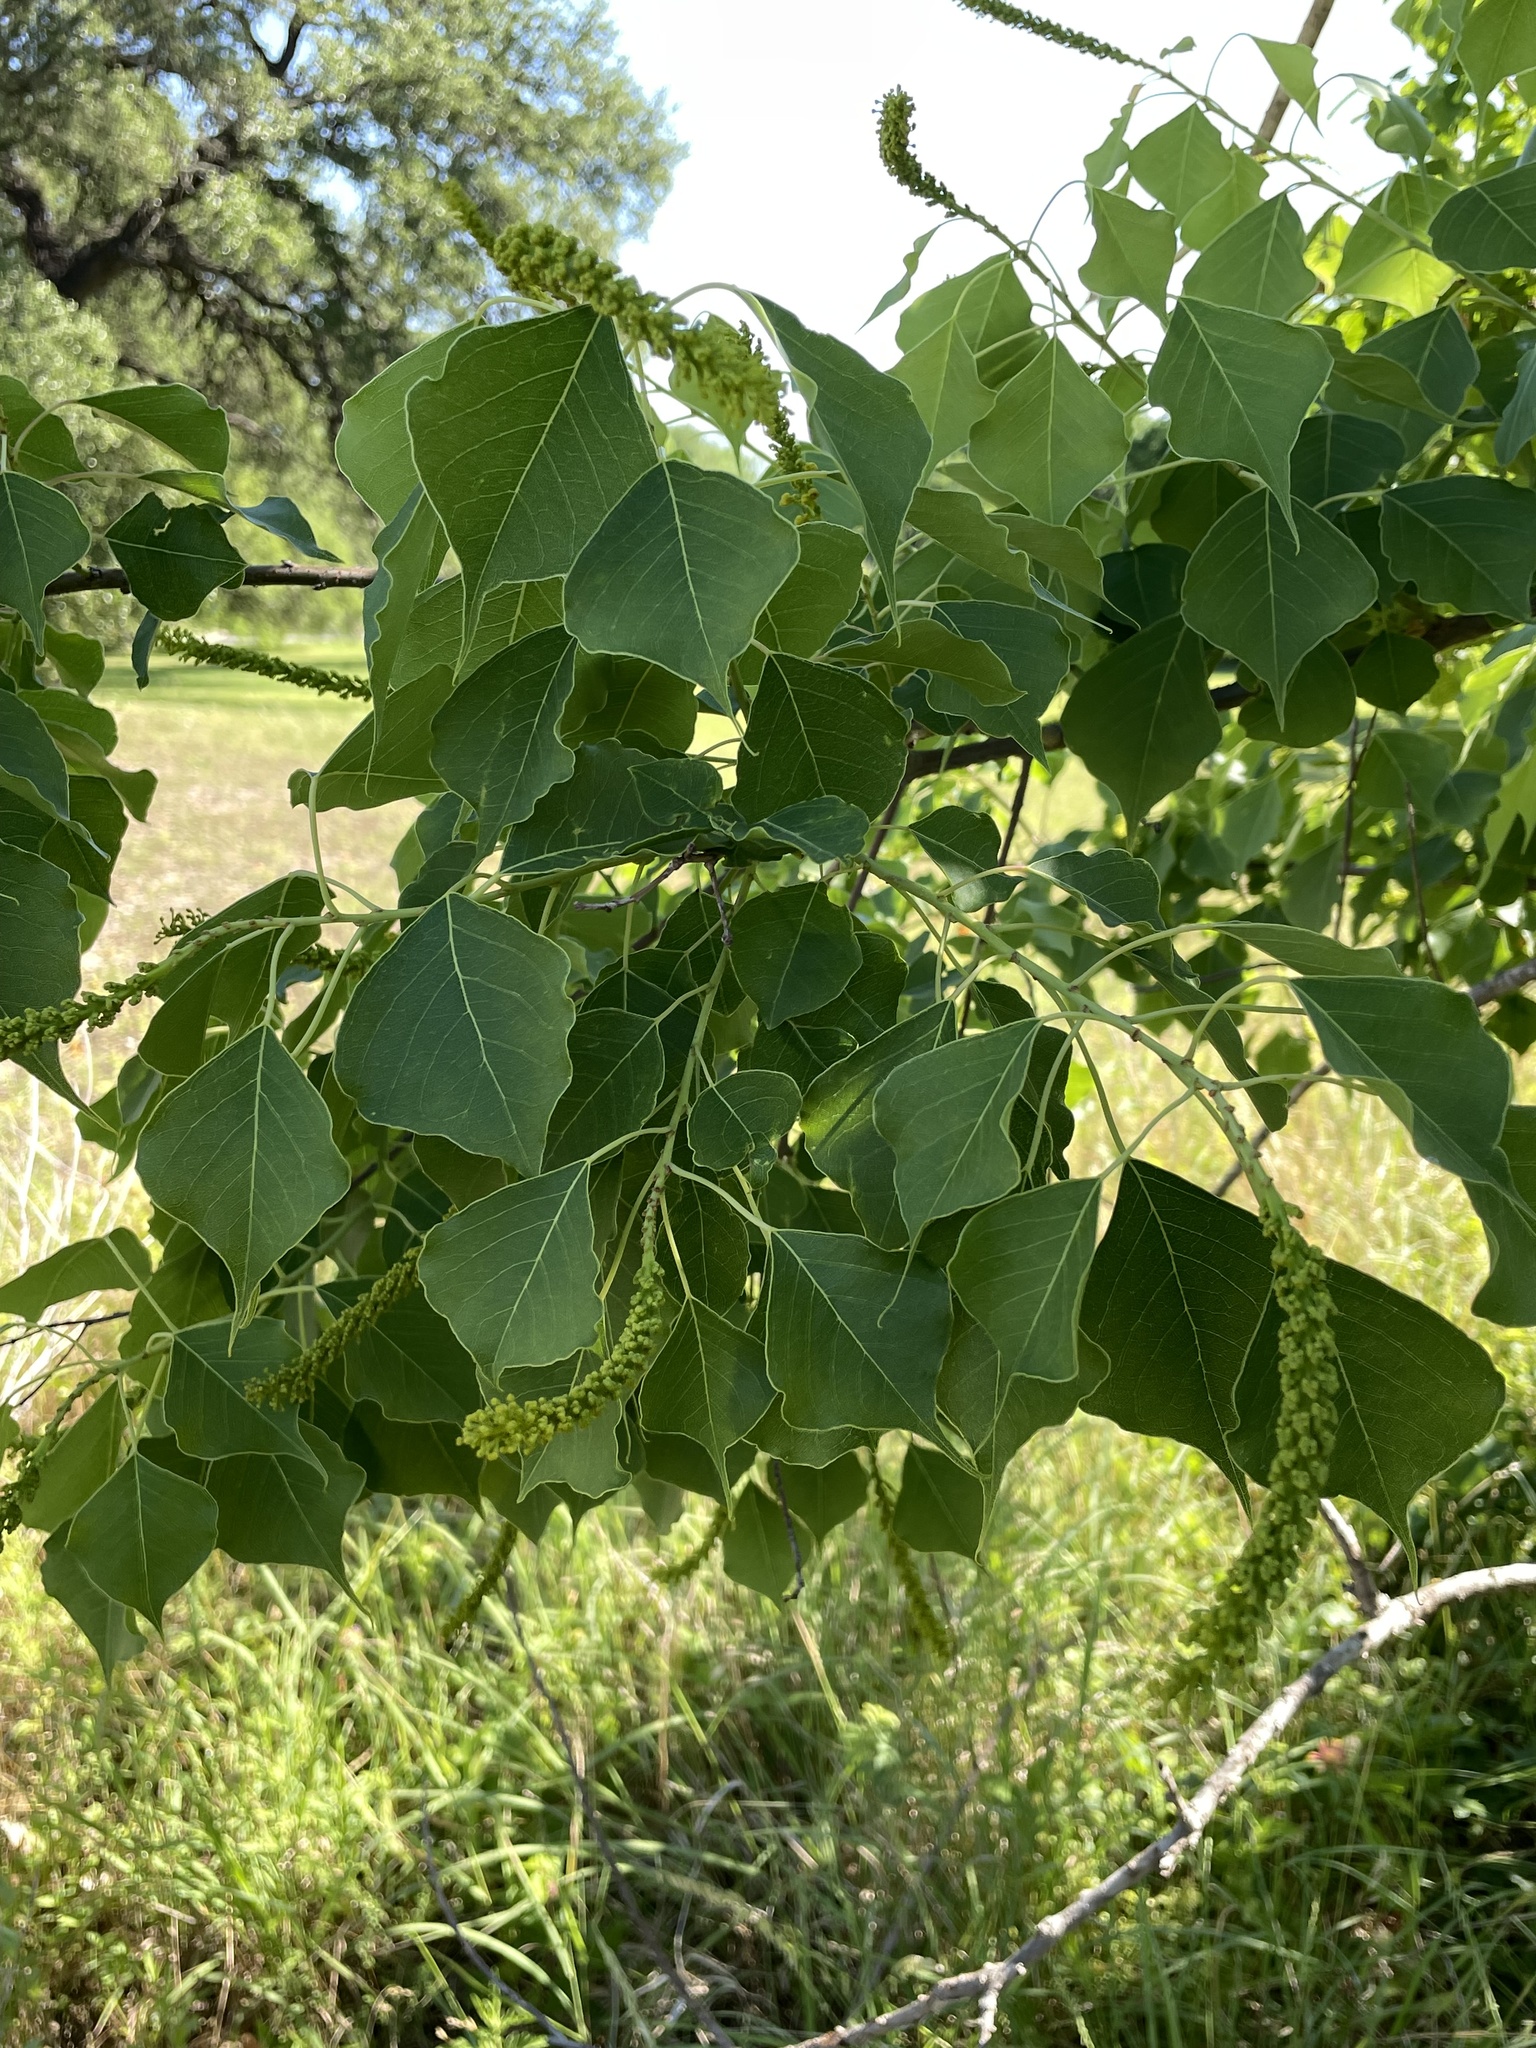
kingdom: Plantae
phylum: Tracheophyta
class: Magnoliopsida
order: Malpighiales
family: Euphorbiaceae
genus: Triadica
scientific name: Triadica sebifera
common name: Chinese tallow
